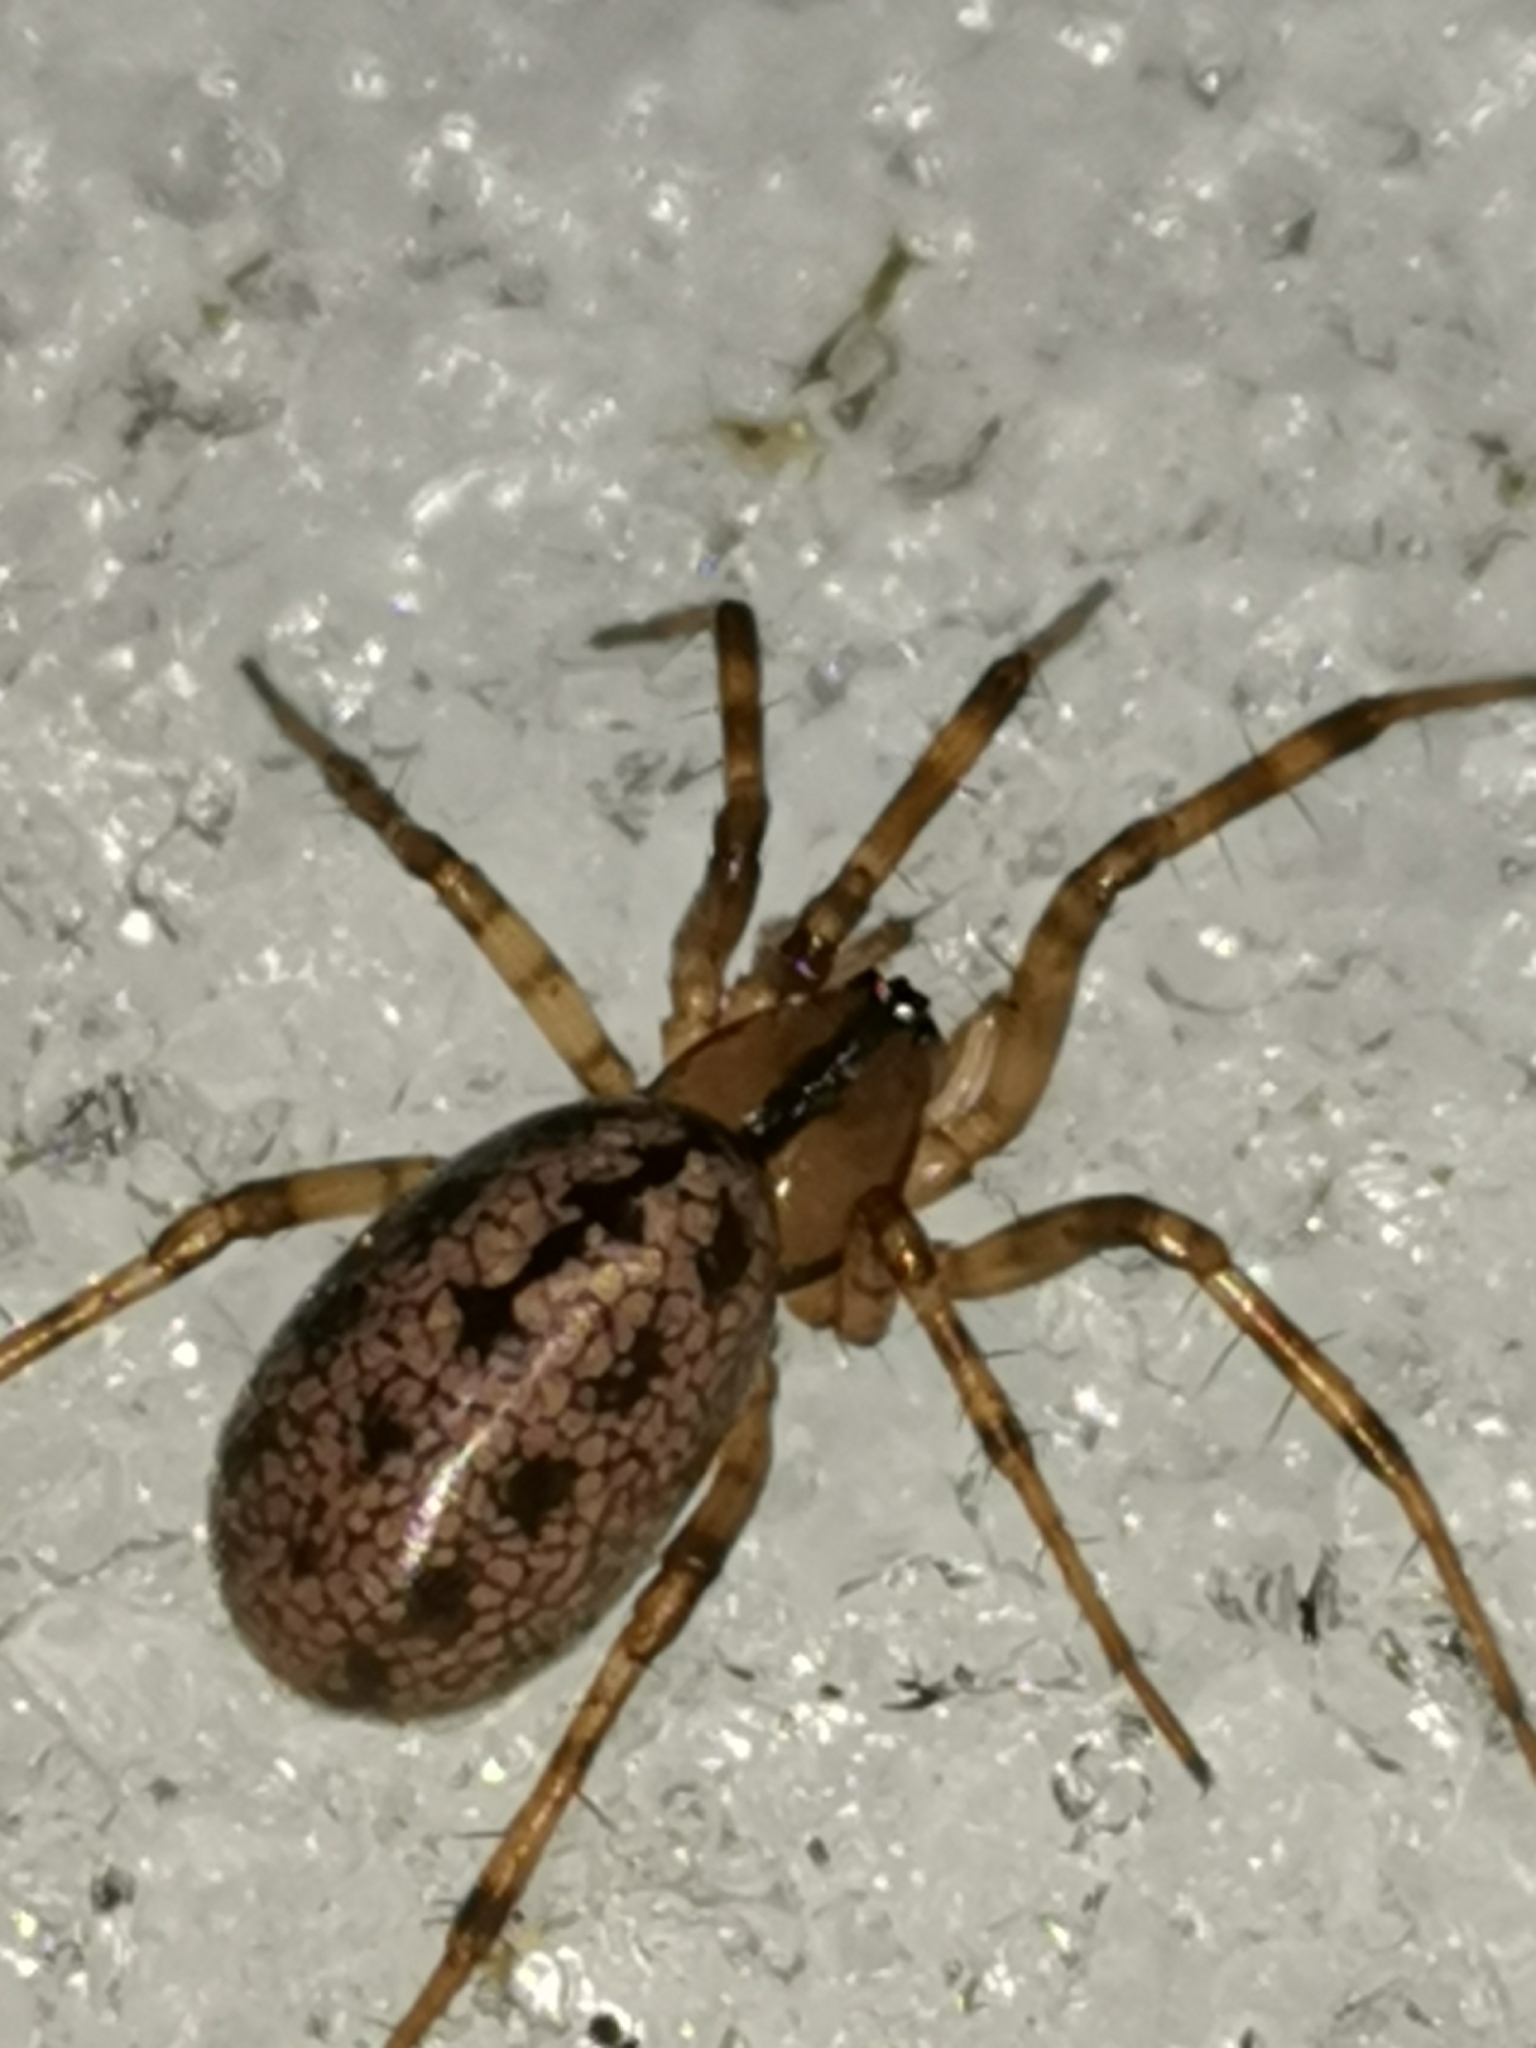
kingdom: Animalia
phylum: Arthropoda
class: Arachnida
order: Araneae
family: Linyphiidae
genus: Stemonyphantes
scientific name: Stemonyphantes lineatus
